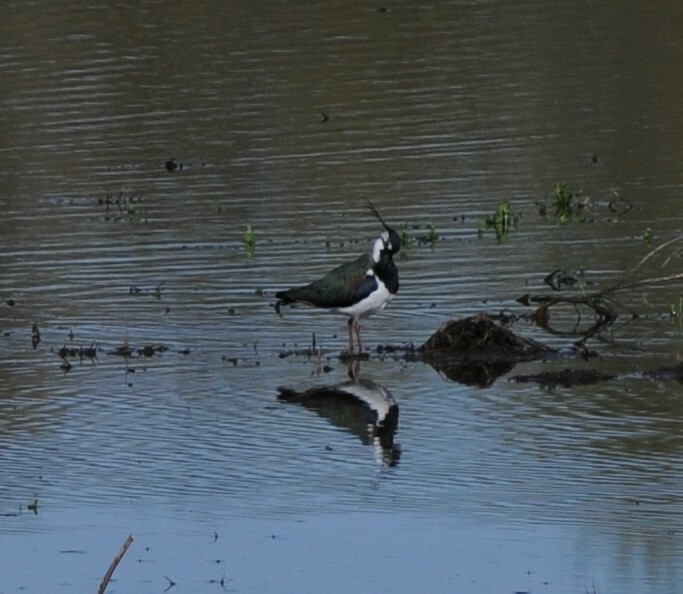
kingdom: Animalia
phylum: Chordata
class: Aves
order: Charadriiformes
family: Charadriidae
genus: Vanellus
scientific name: Vanellus vanellus
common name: Northern lapwing
